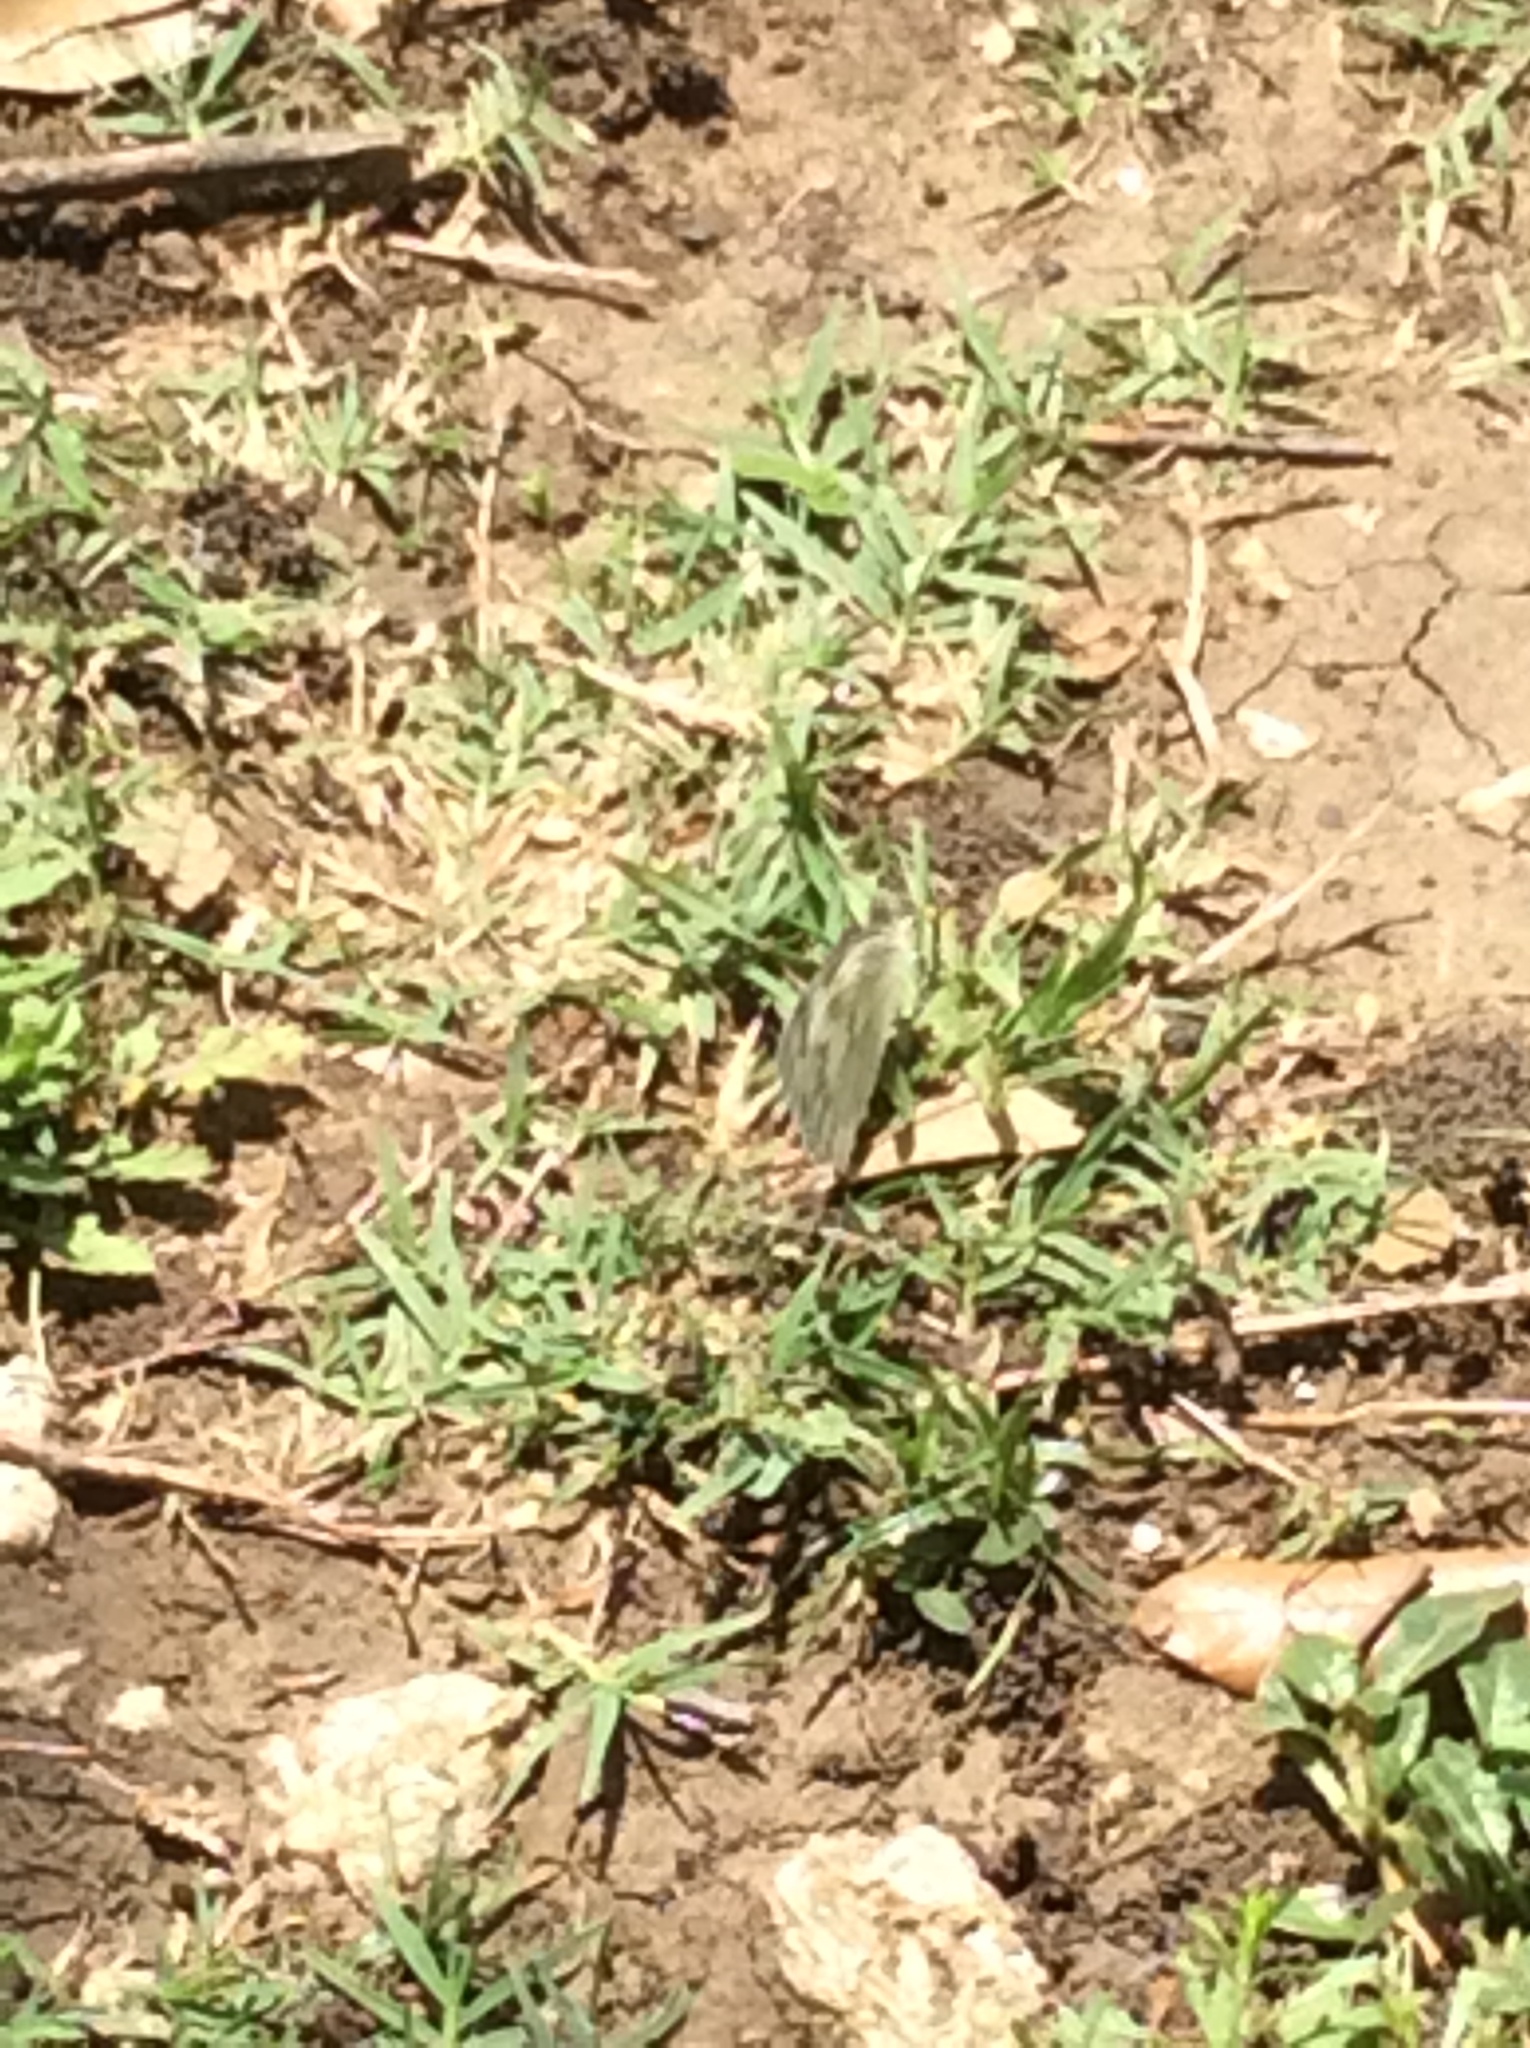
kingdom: Animalia
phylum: Arthropoda
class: Insecta
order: Lepidoptera
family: Pieridae
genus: Pontia
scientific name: Pontia protodice
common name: Checkered white
